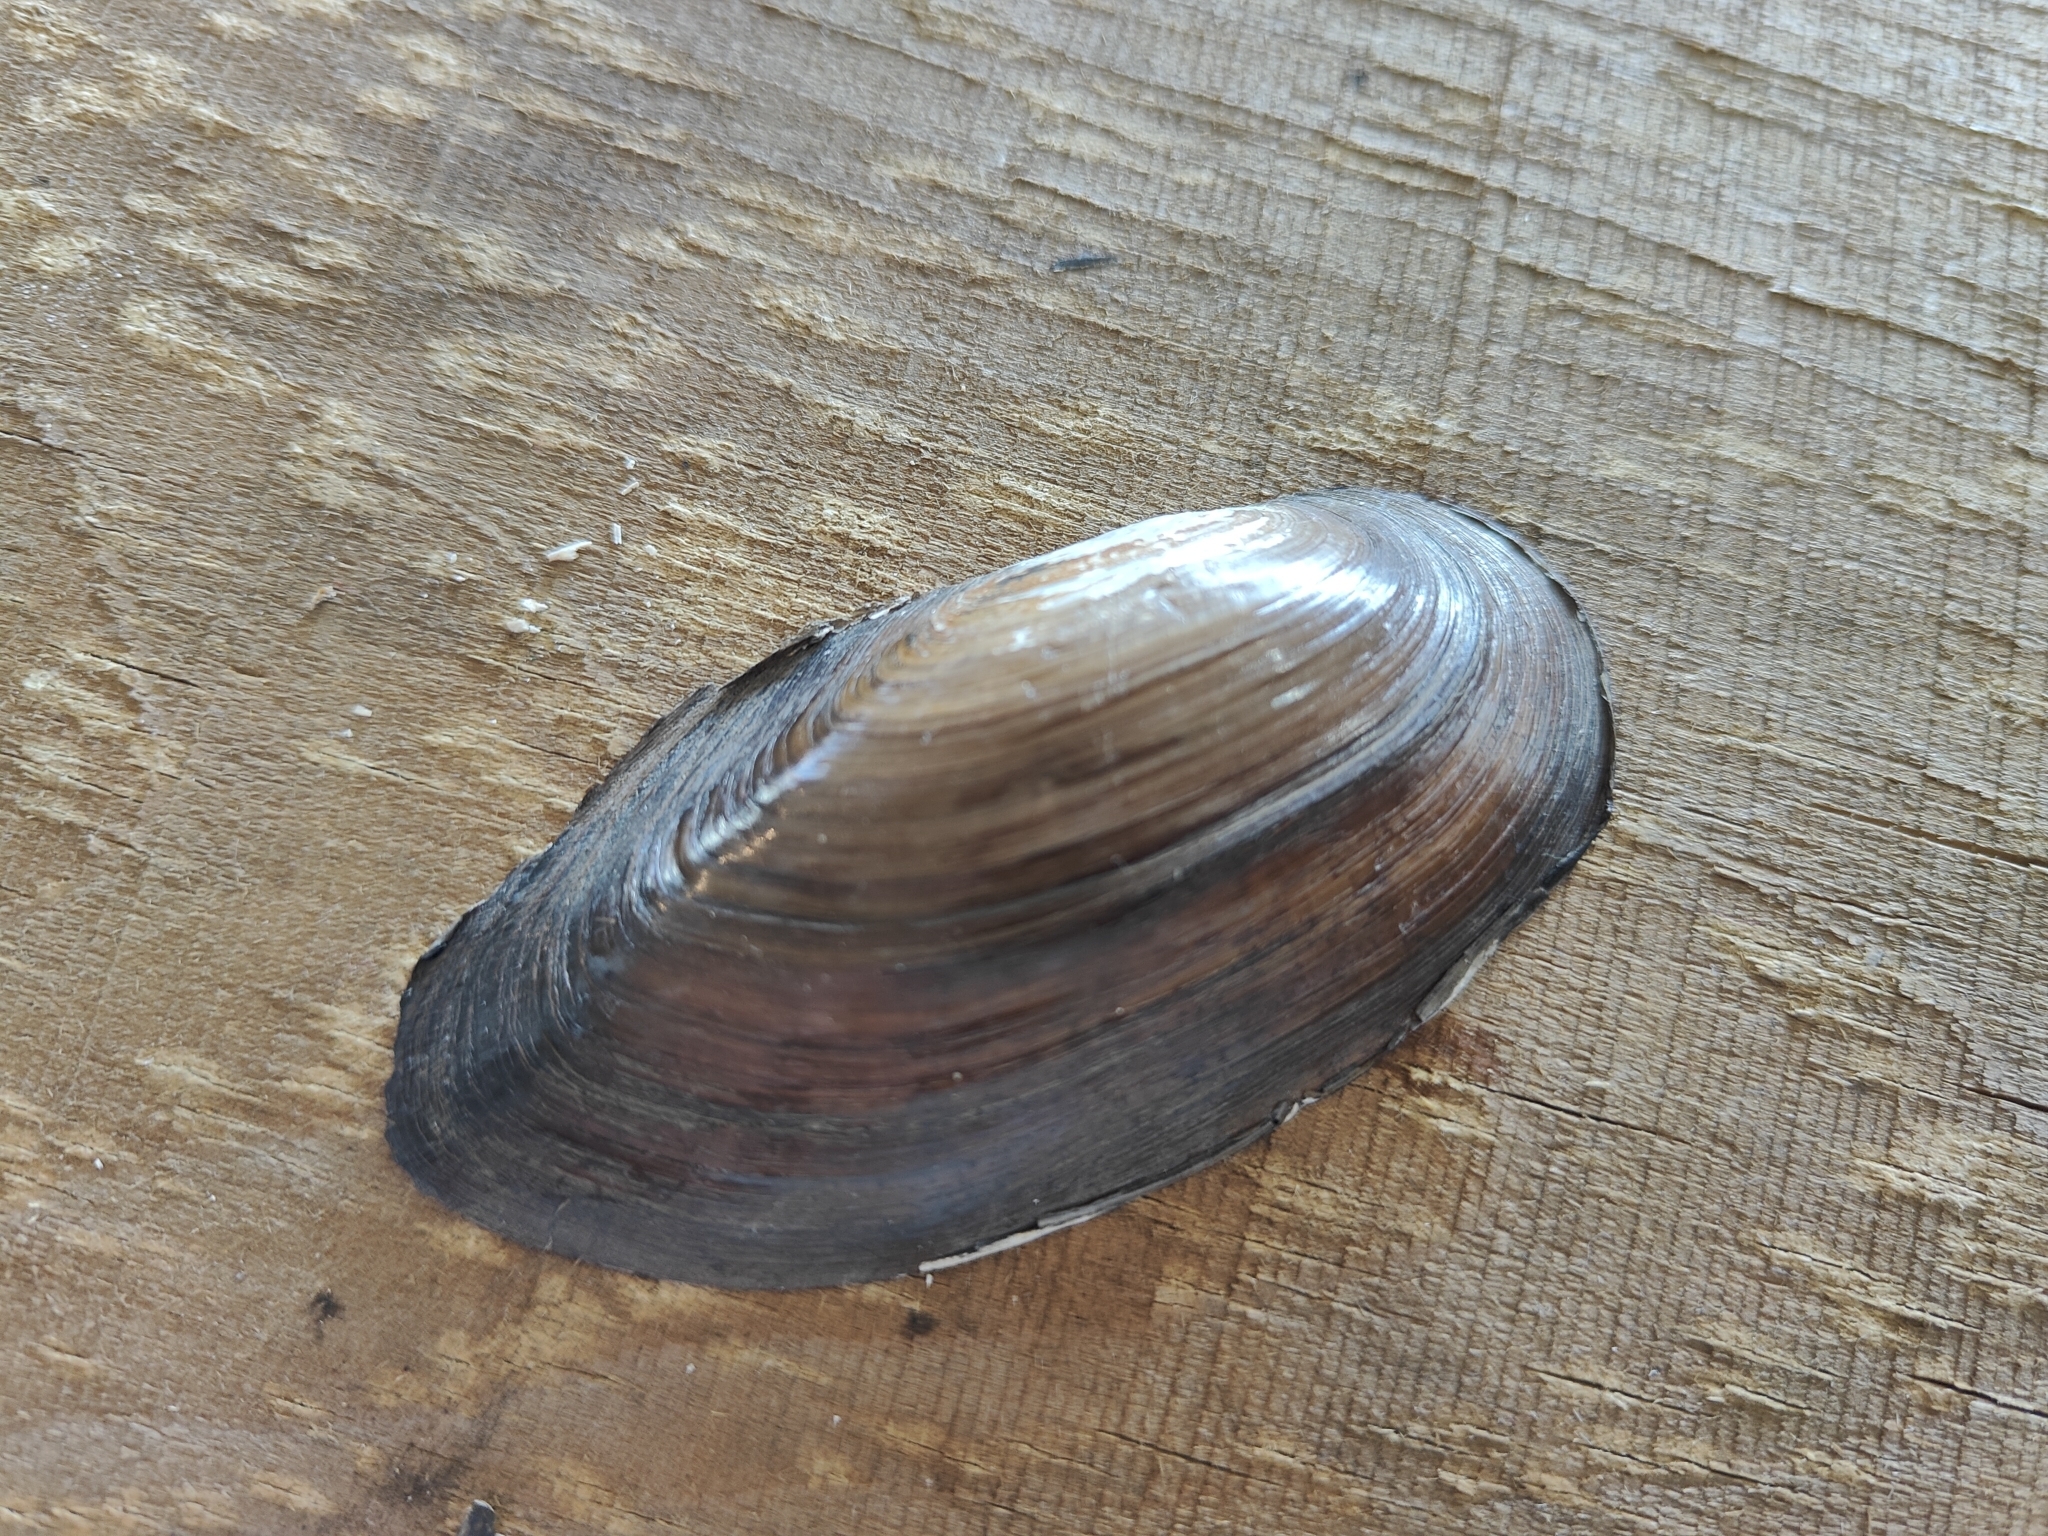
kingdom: Animalia
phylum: Mollusca
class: Bivalvia
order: Unionida
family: Unionidae
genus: Utterbackia
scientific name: Utterbackia imbecillis
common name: Paper pondshell
